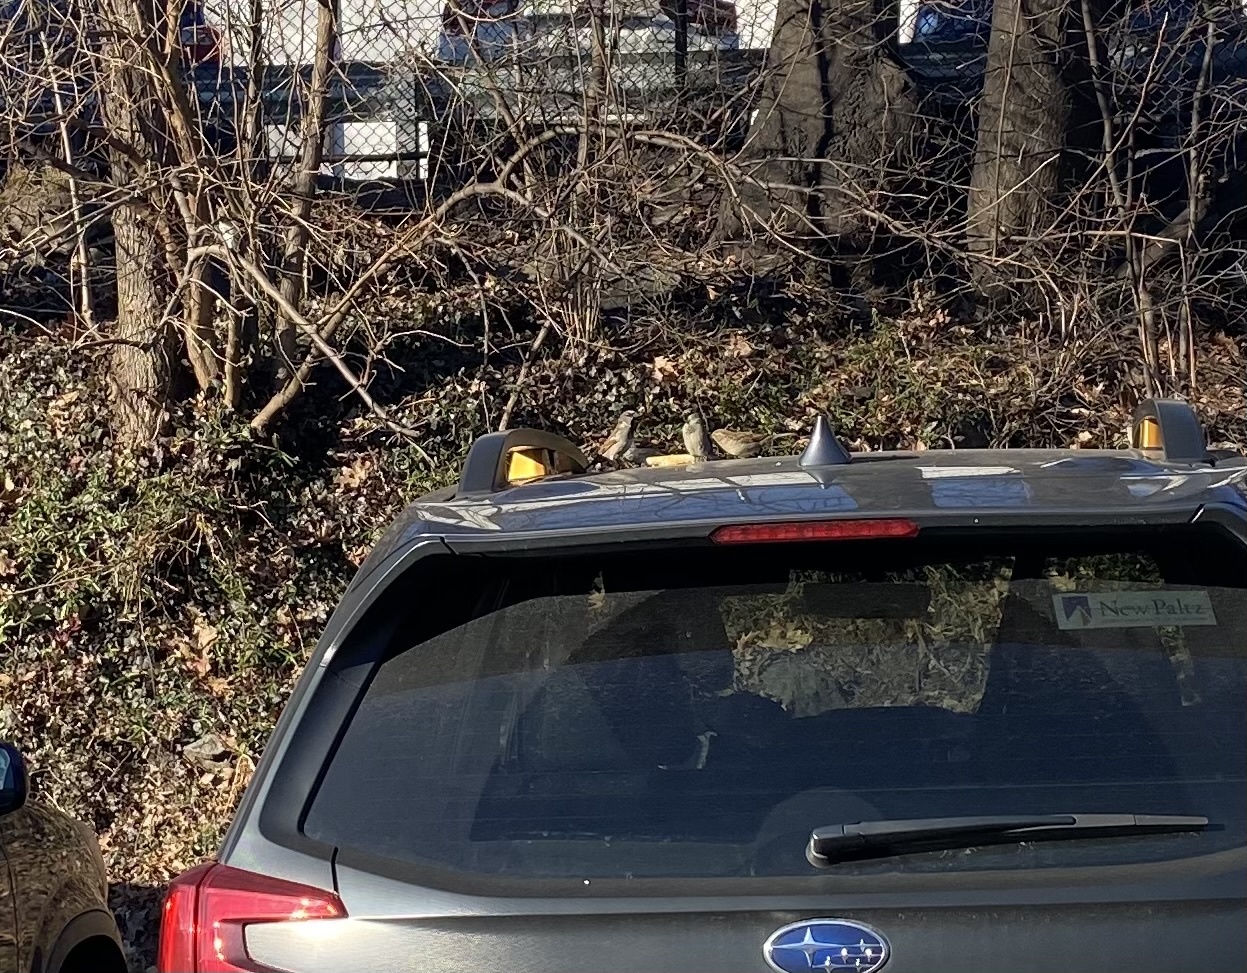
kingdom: Animalia
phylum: Chordata
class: Aves
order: Passeriformes
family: Passeridae
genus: Passer
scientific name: Passer domesticus
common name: House sparrow
